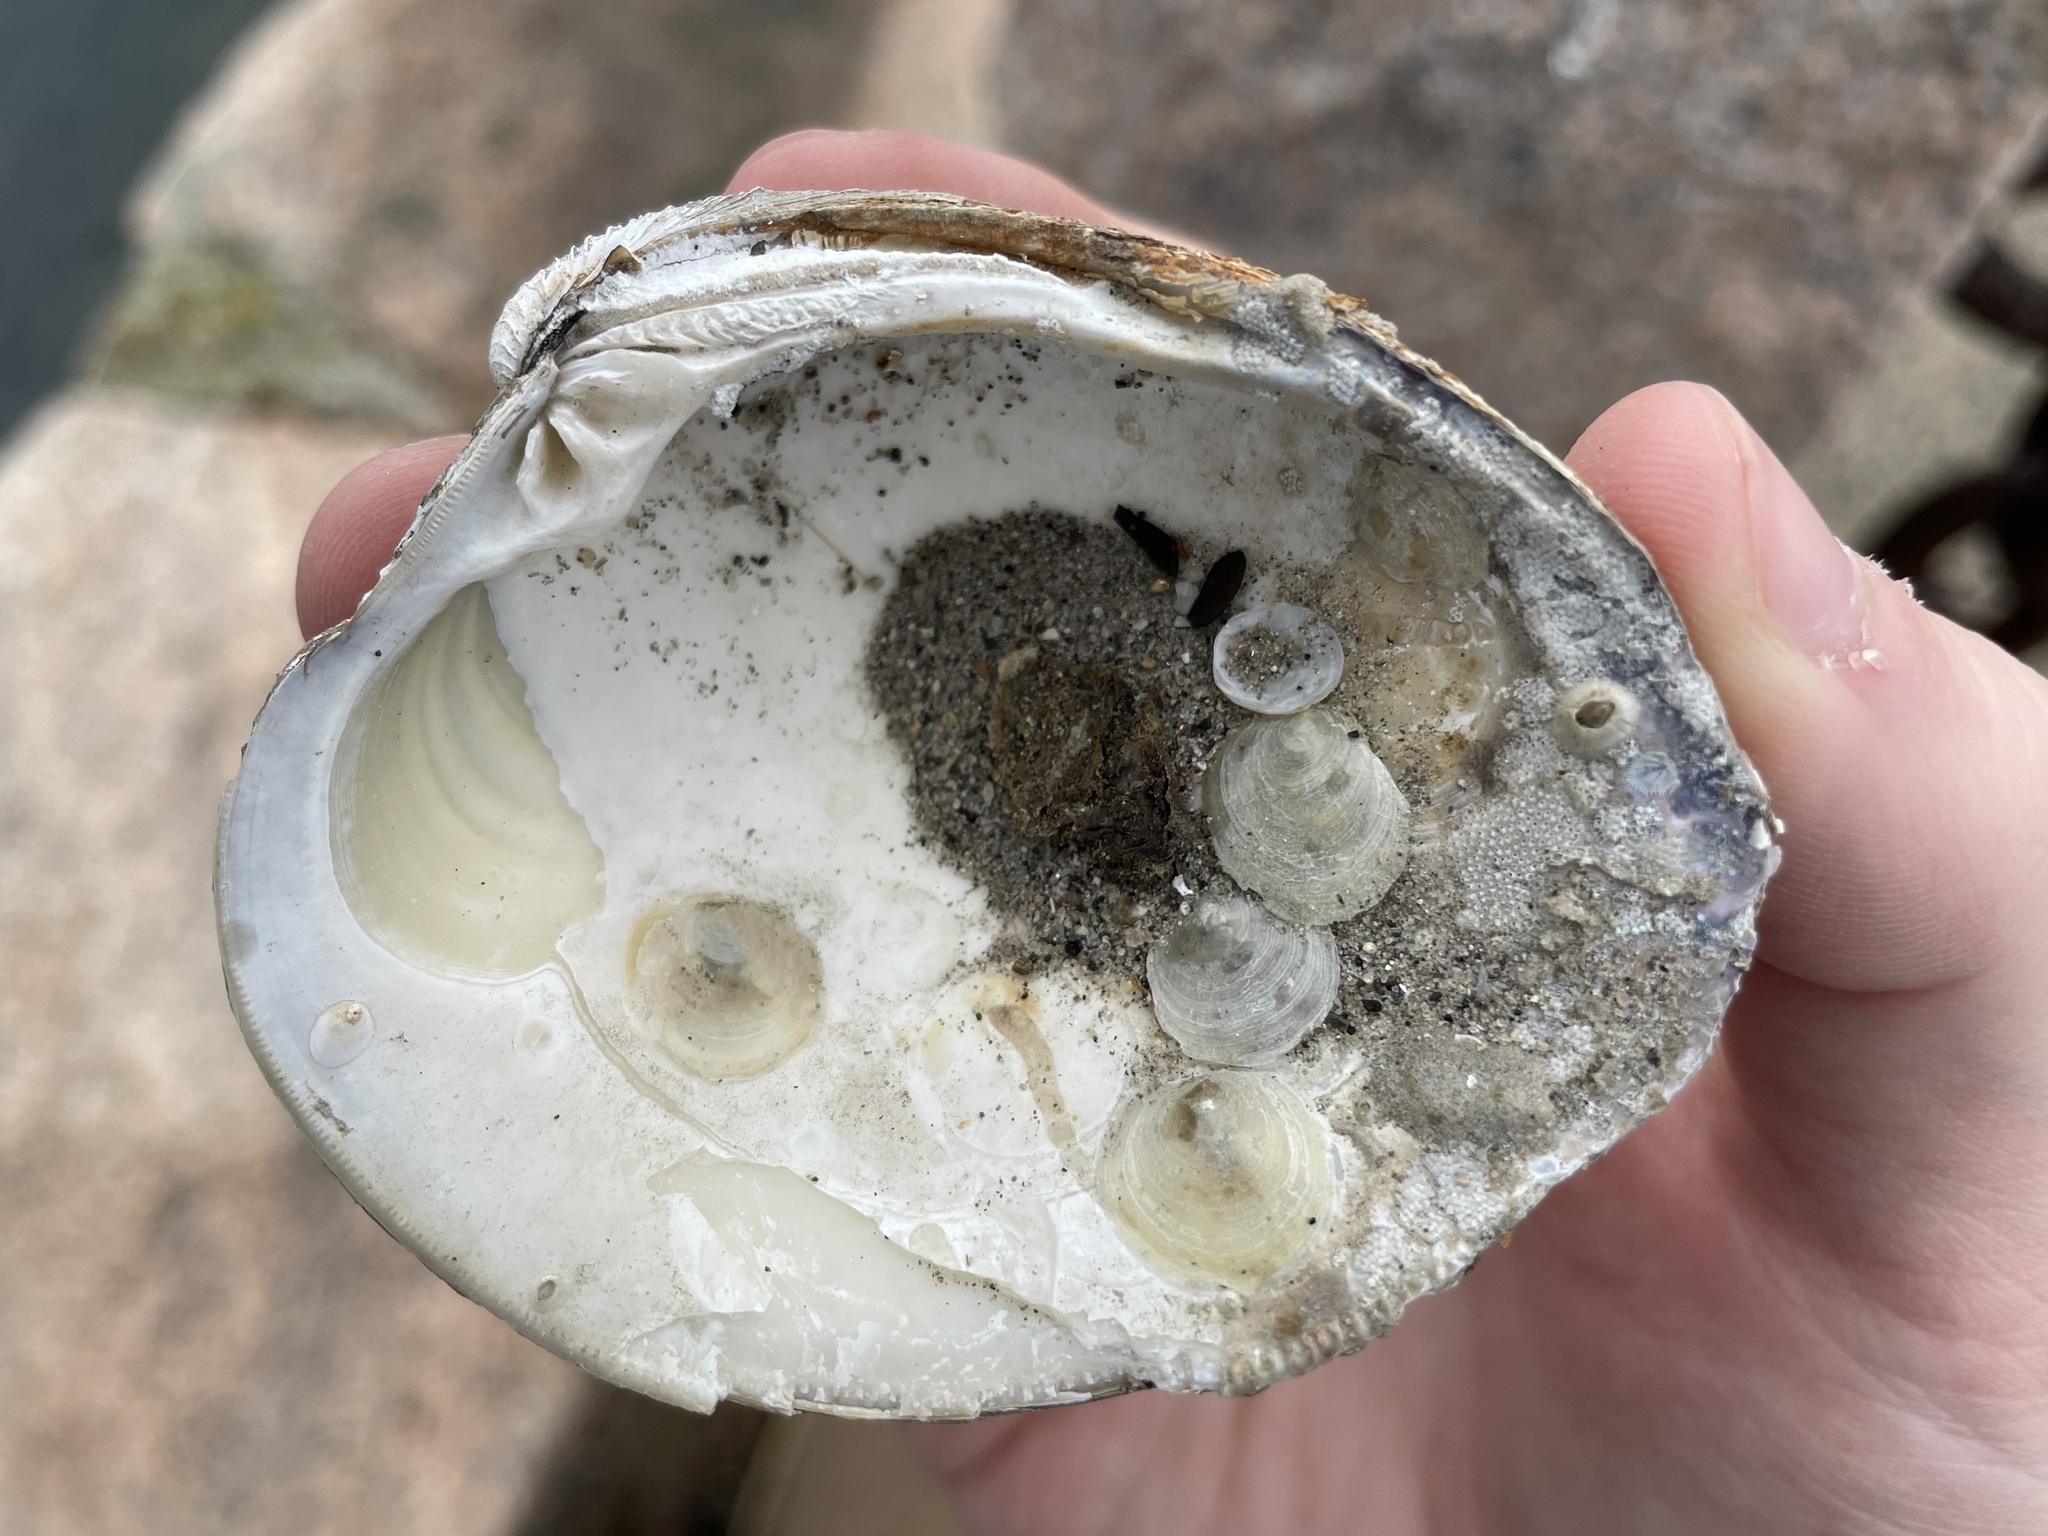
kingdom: Animalia
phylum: Mollusca
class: Bivalvia
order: Venerida
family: Veneridae
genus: Mercenaria
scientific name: Mercenaria mercenaria
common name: American hard-shelled clam
